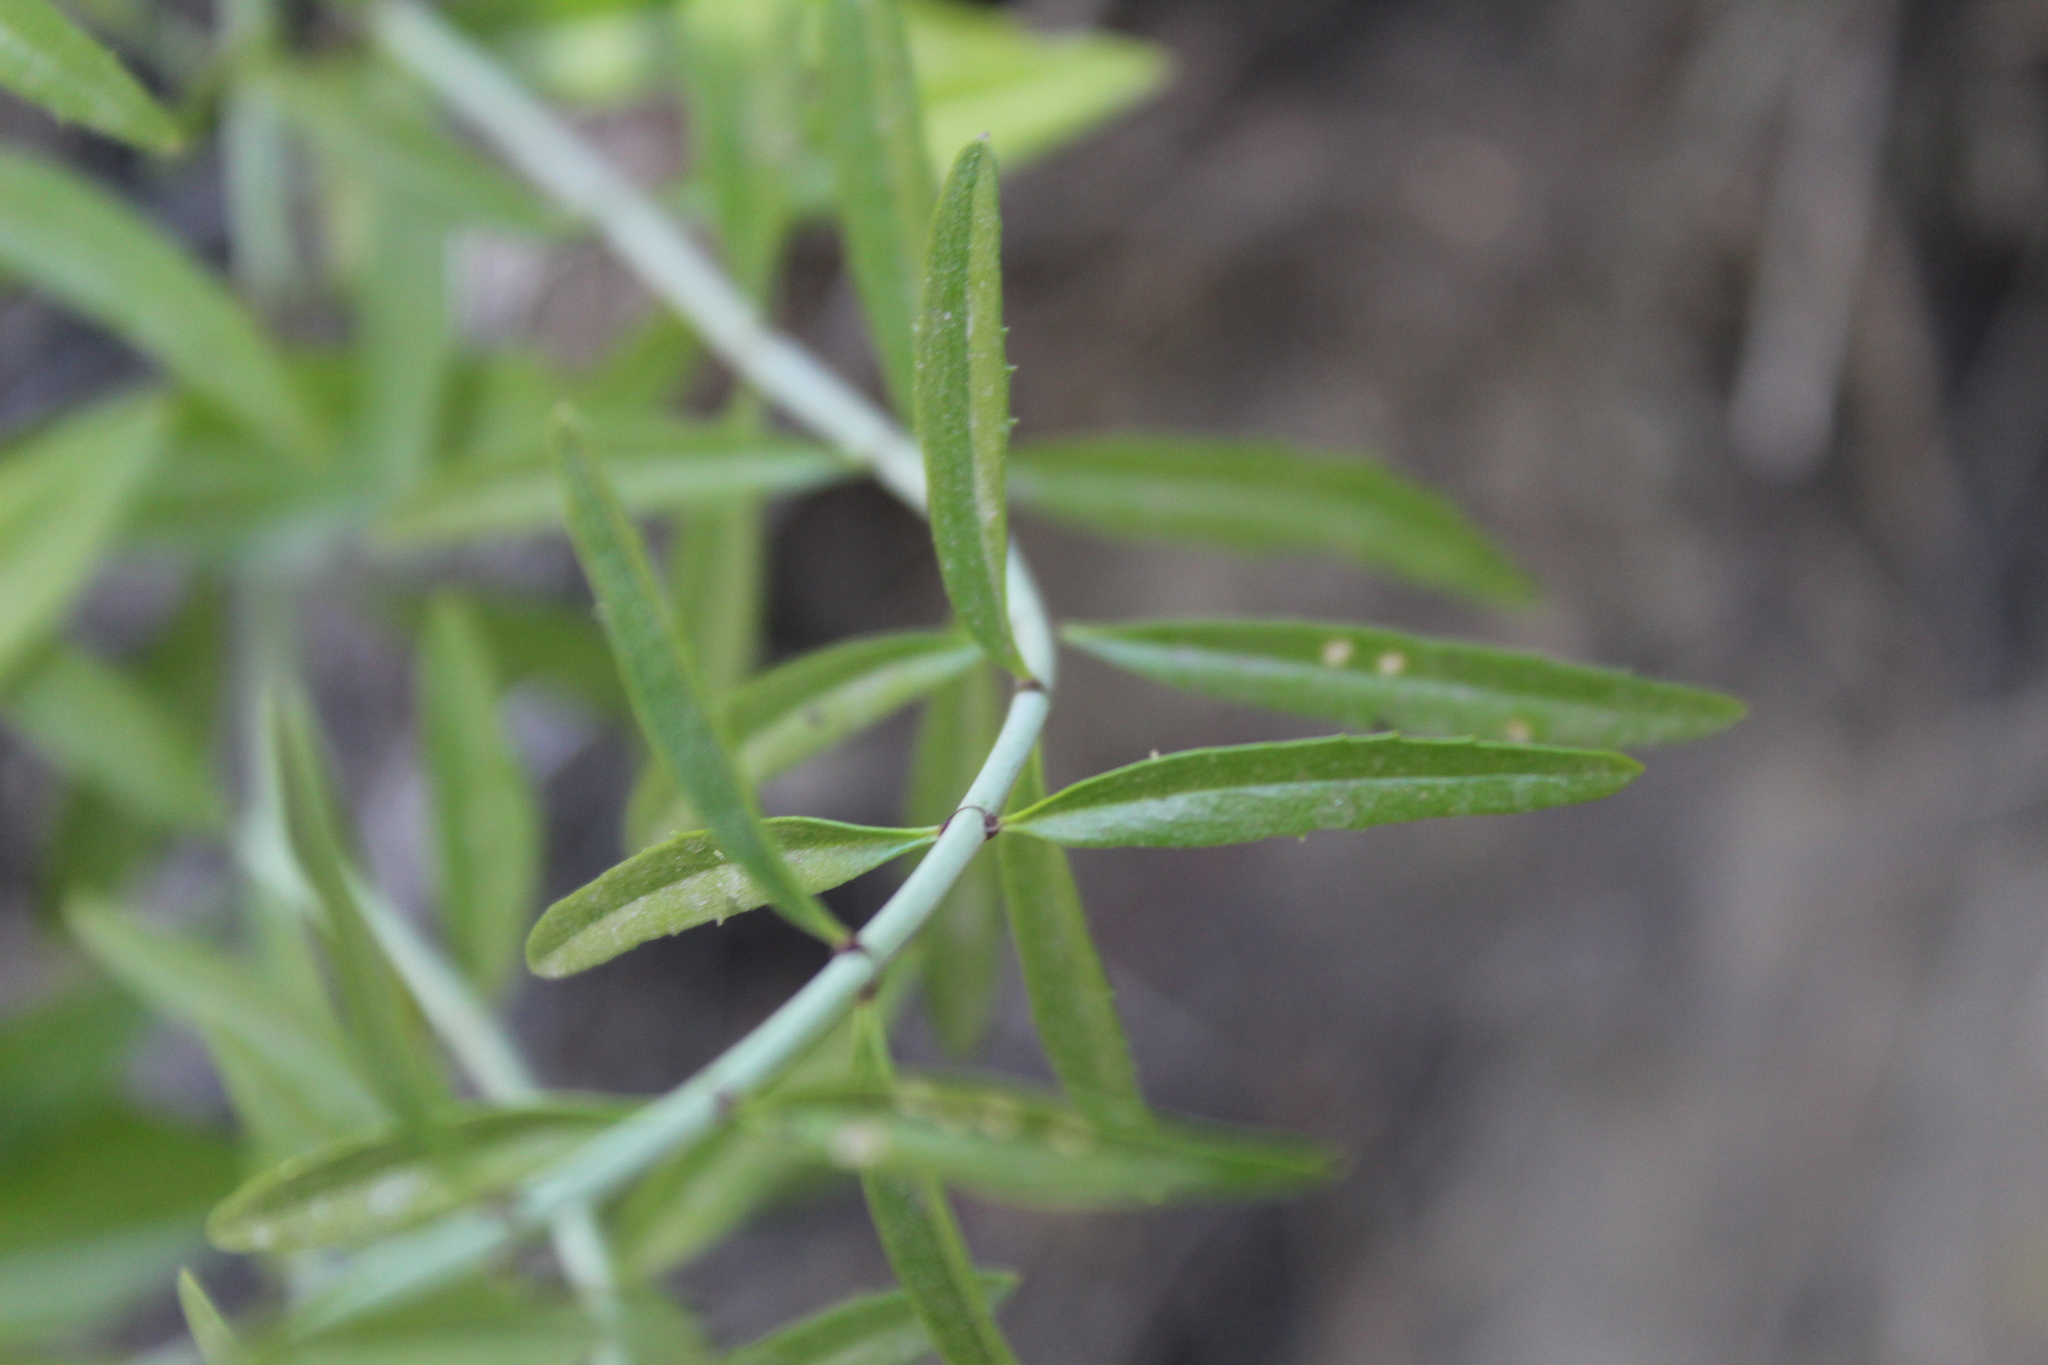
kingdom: Plantae
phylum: Tracheophyta
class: Magnoliopsida
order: Lamiales
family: Plantaginaceae
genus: Keckiella
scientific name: Keckiella breviflora
